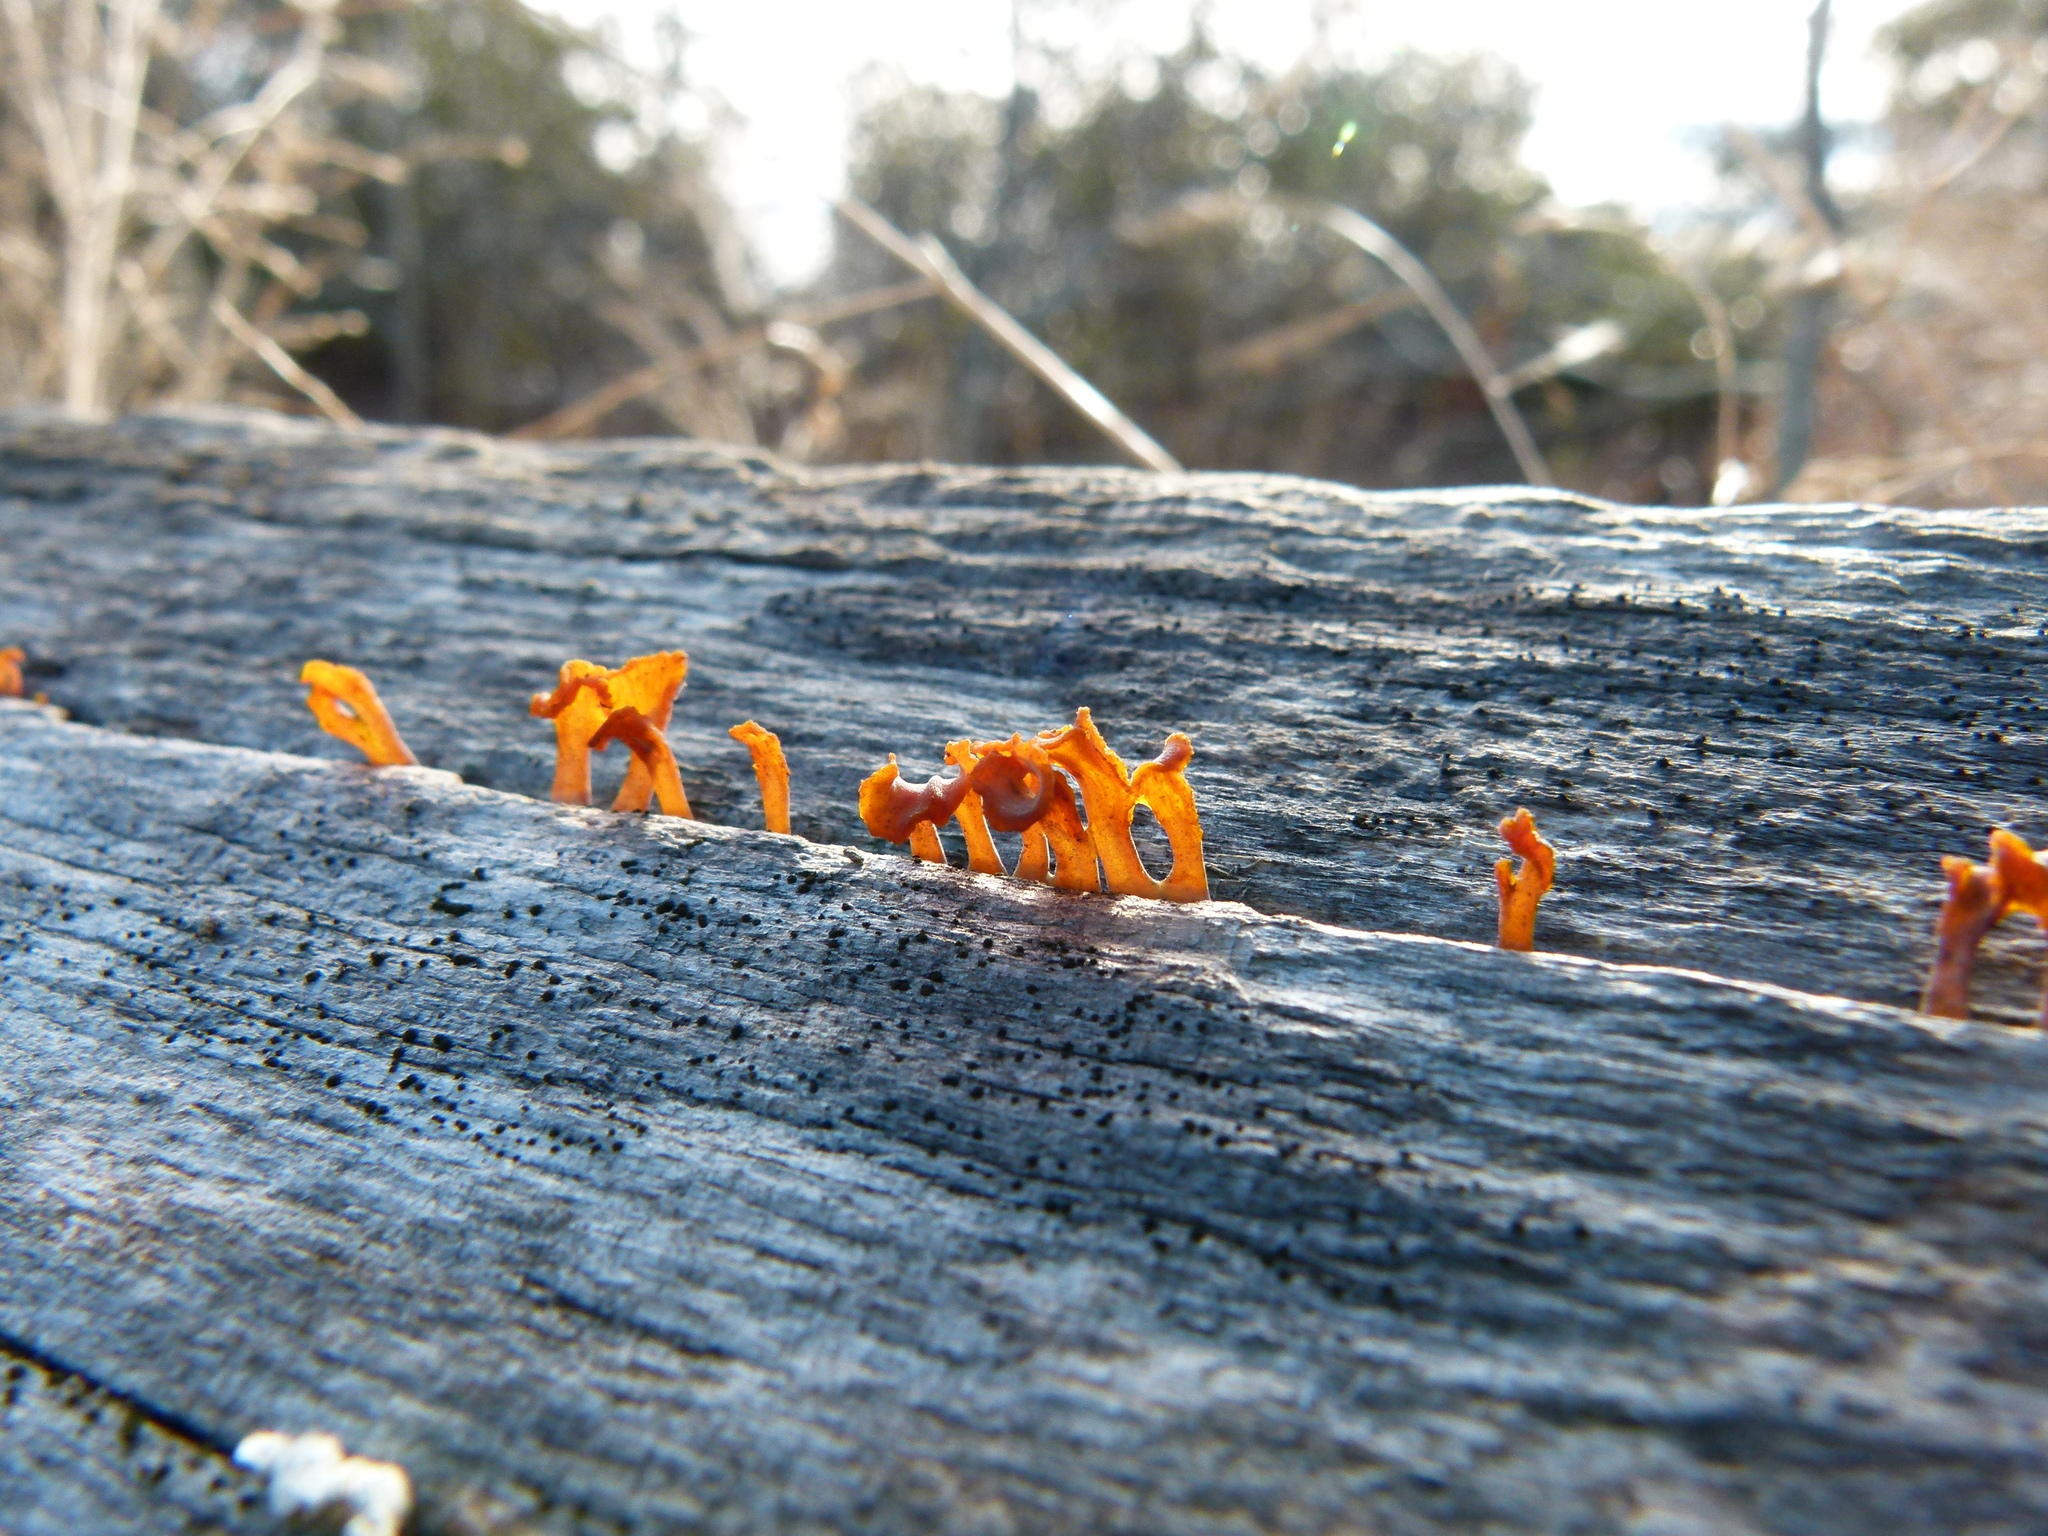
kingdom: Fungi
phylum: Basidiomycota
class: Dacrymycetes
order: Dacrymycetales
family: Dacrymycetaceae
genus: Calocera
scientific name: Calocera furcata
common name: Forked stagshorn
